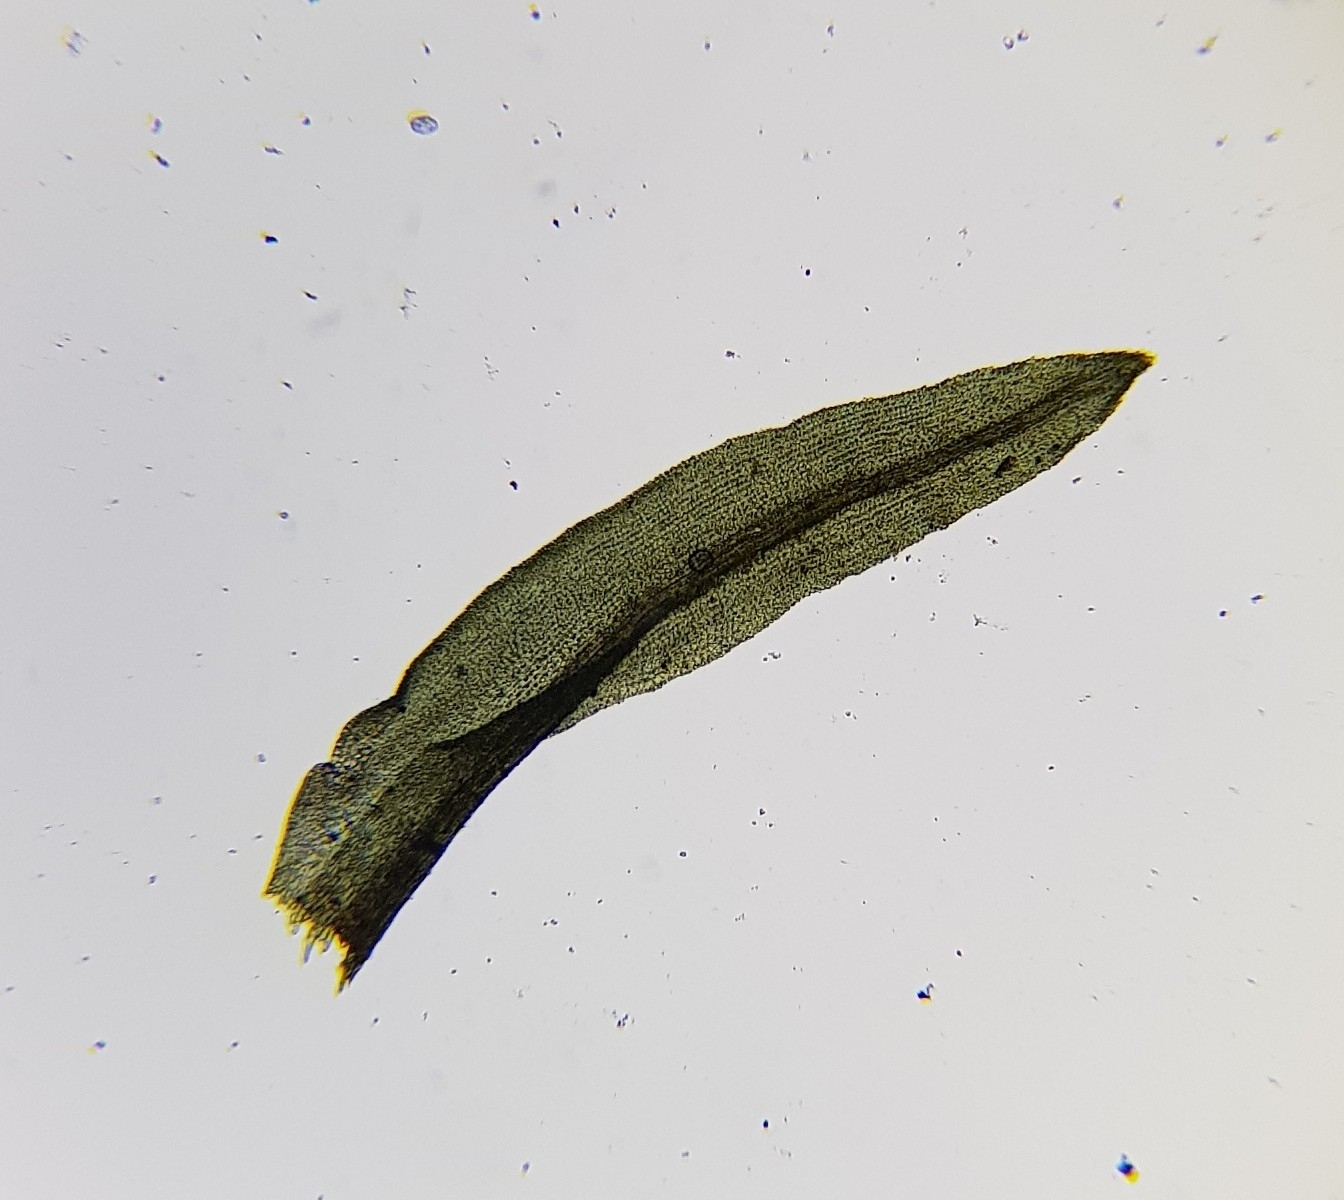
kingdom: Plantae
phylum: Bryophyta
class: Bryopsida
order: Dicranales
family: Aongstroemiaceae
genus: Dichodontium
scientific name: Dichodontium pellucidum
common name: Transparent fork moss
